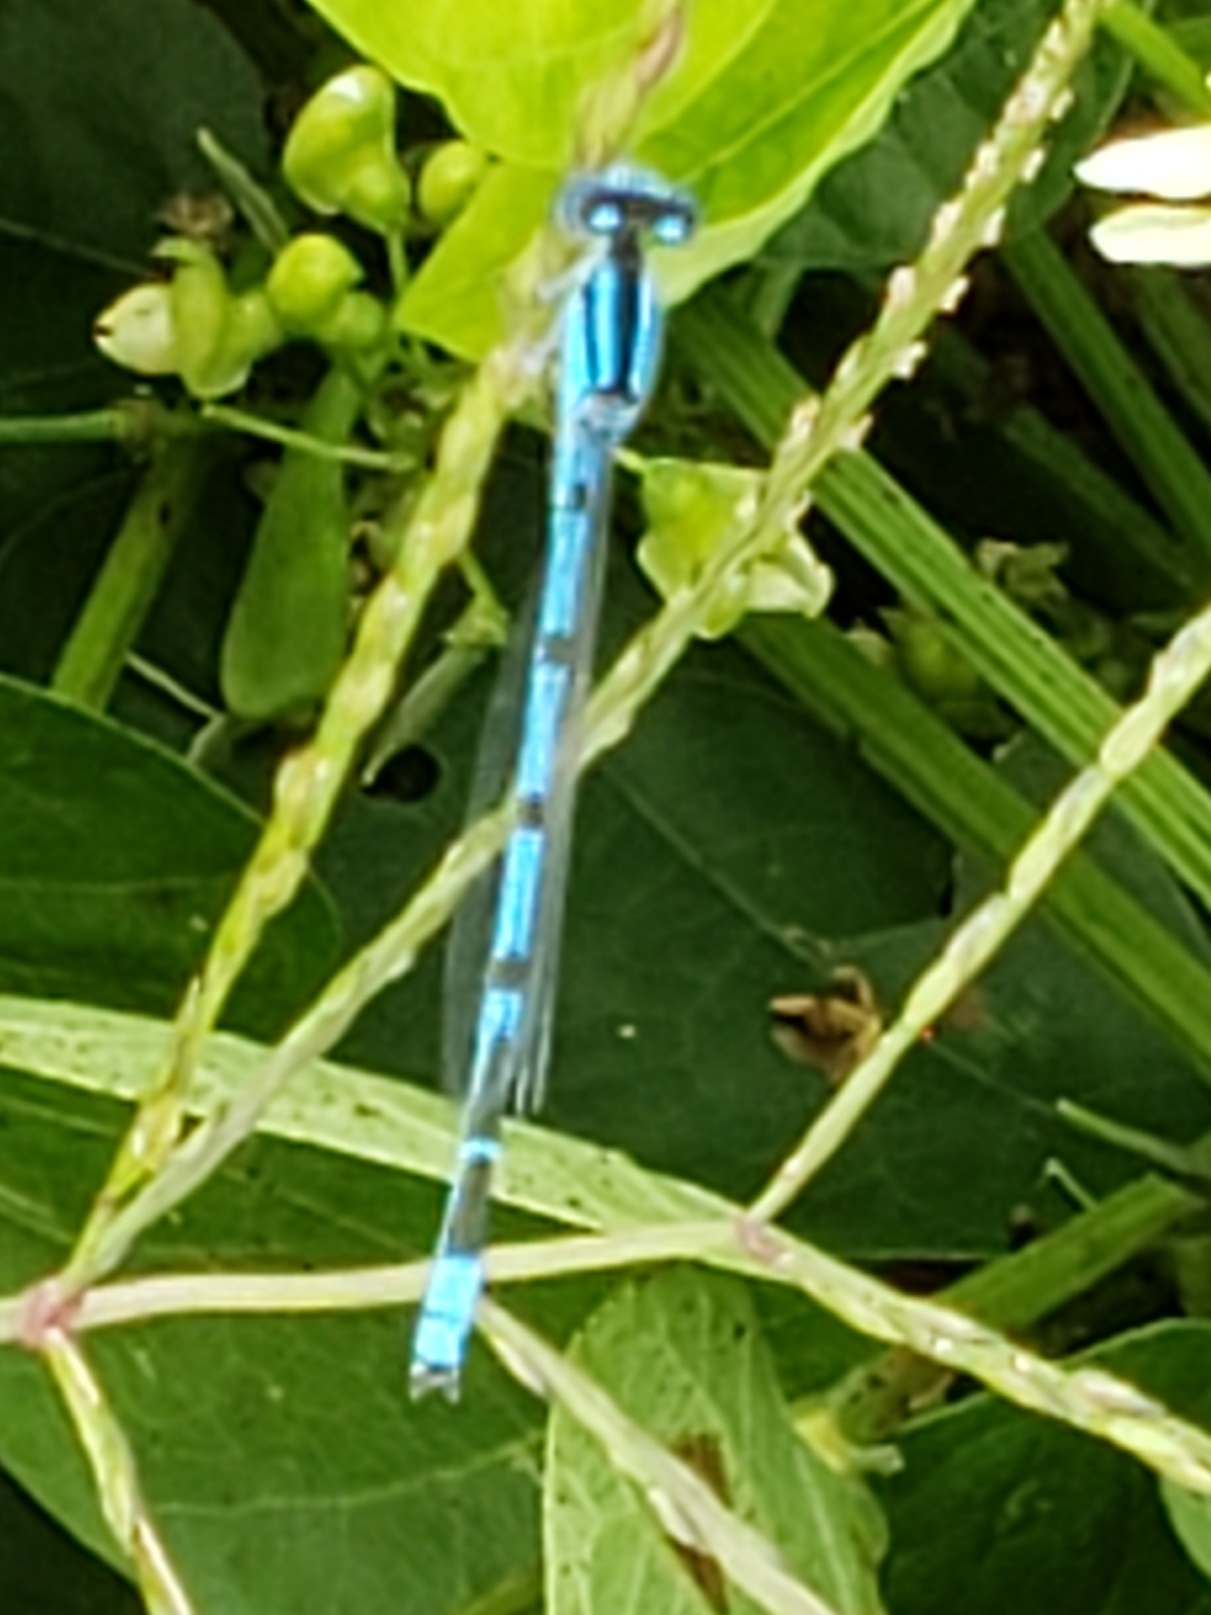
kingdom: Animalia
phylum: Arthropoda
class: Insecta
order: Odonata
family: Coenagrionidae
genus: Enallagma
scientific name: Enallagma civile
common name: Damselfly
